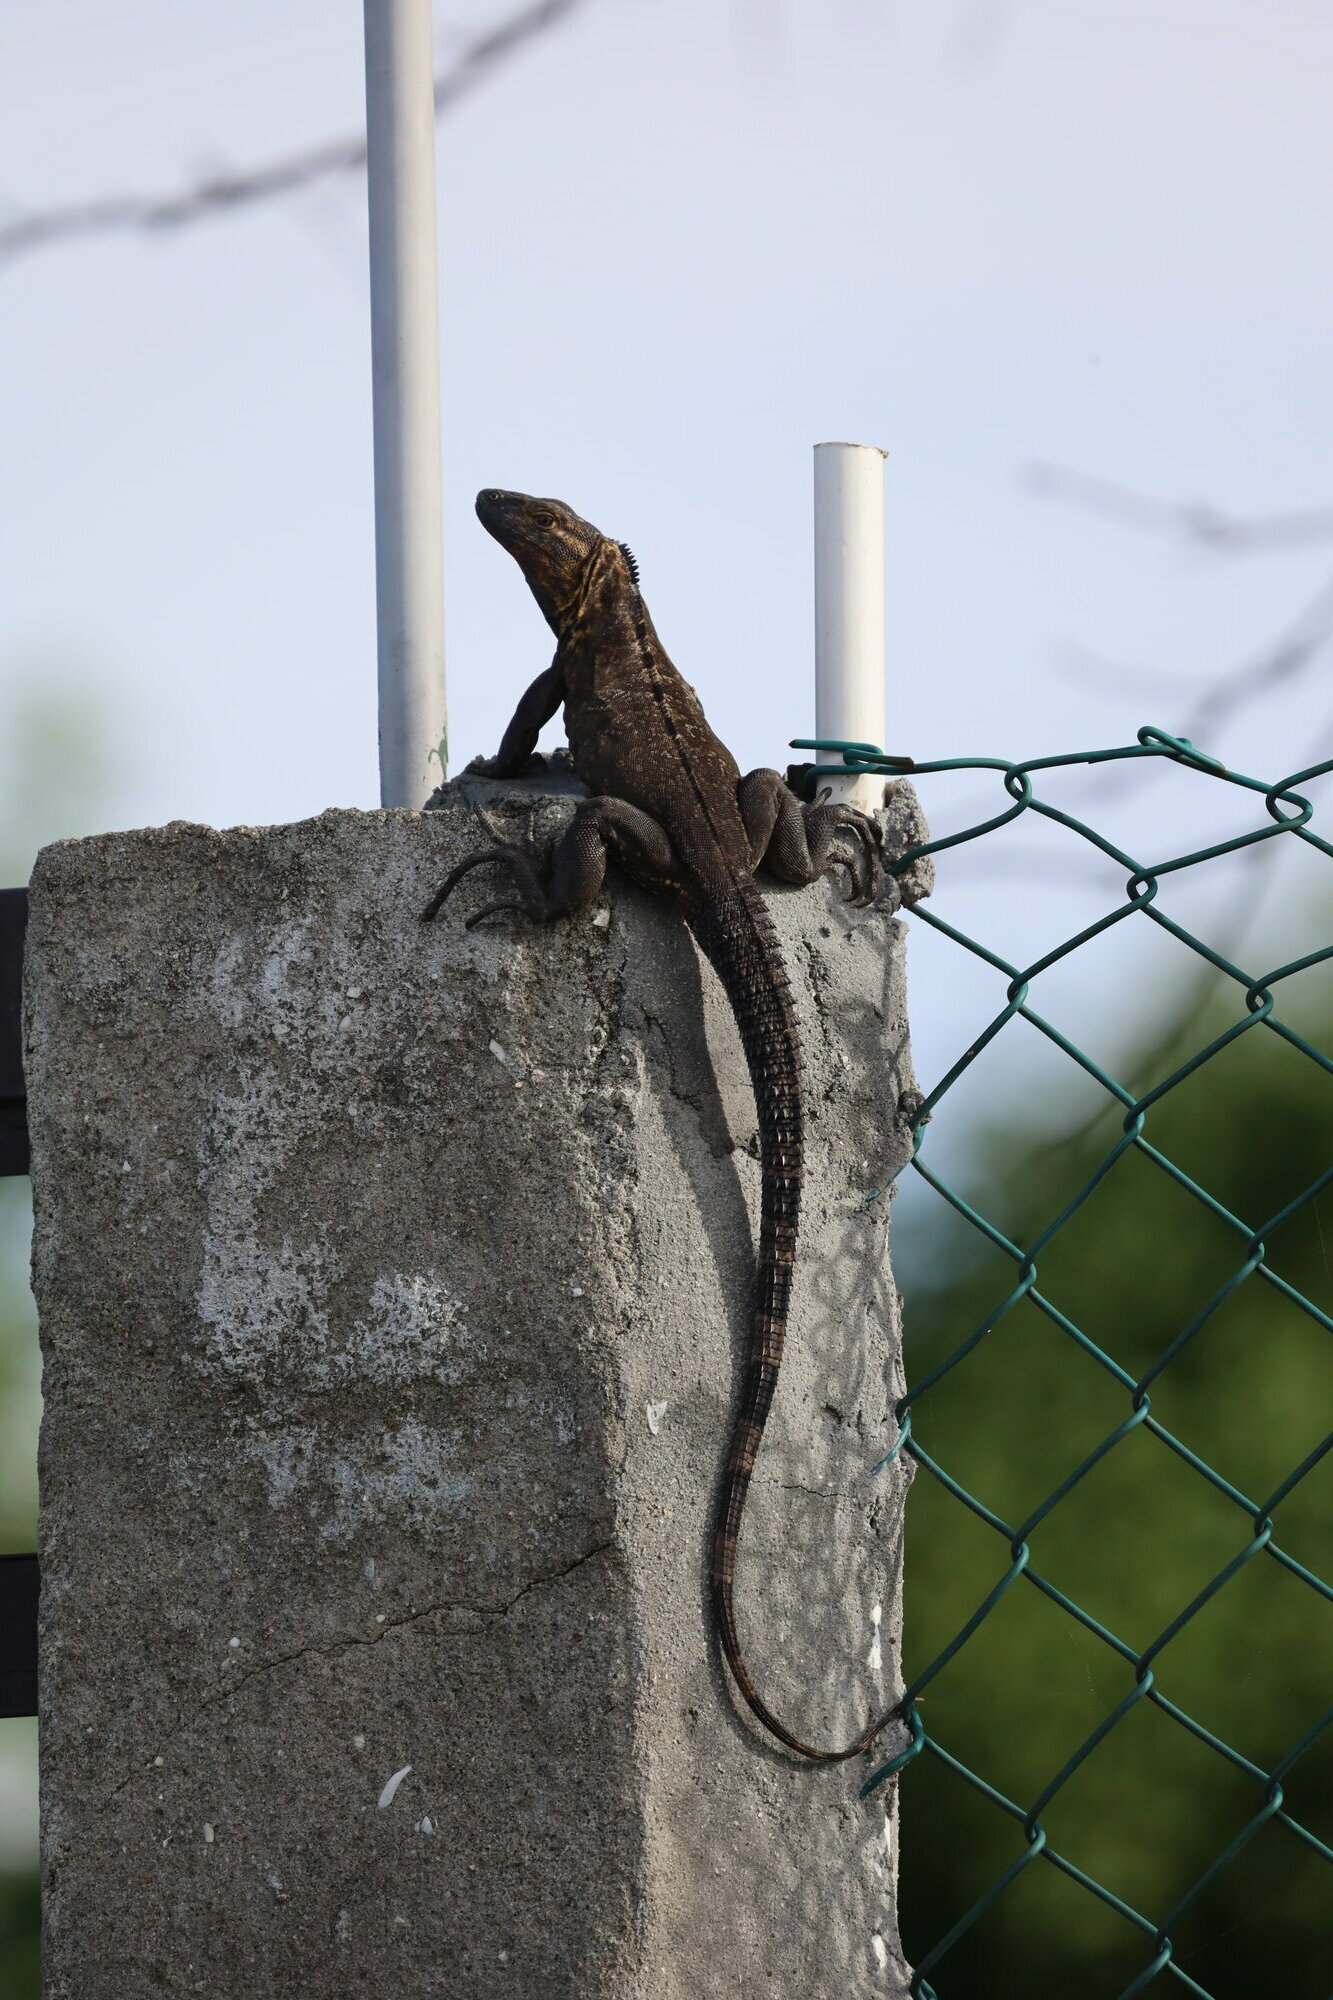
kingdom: Animalia
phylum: Chordata
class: Squamata
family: Iguanidae
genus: Ctenosaura
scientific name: Ctenosaura similis
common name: Black spiny-tailed iguana
